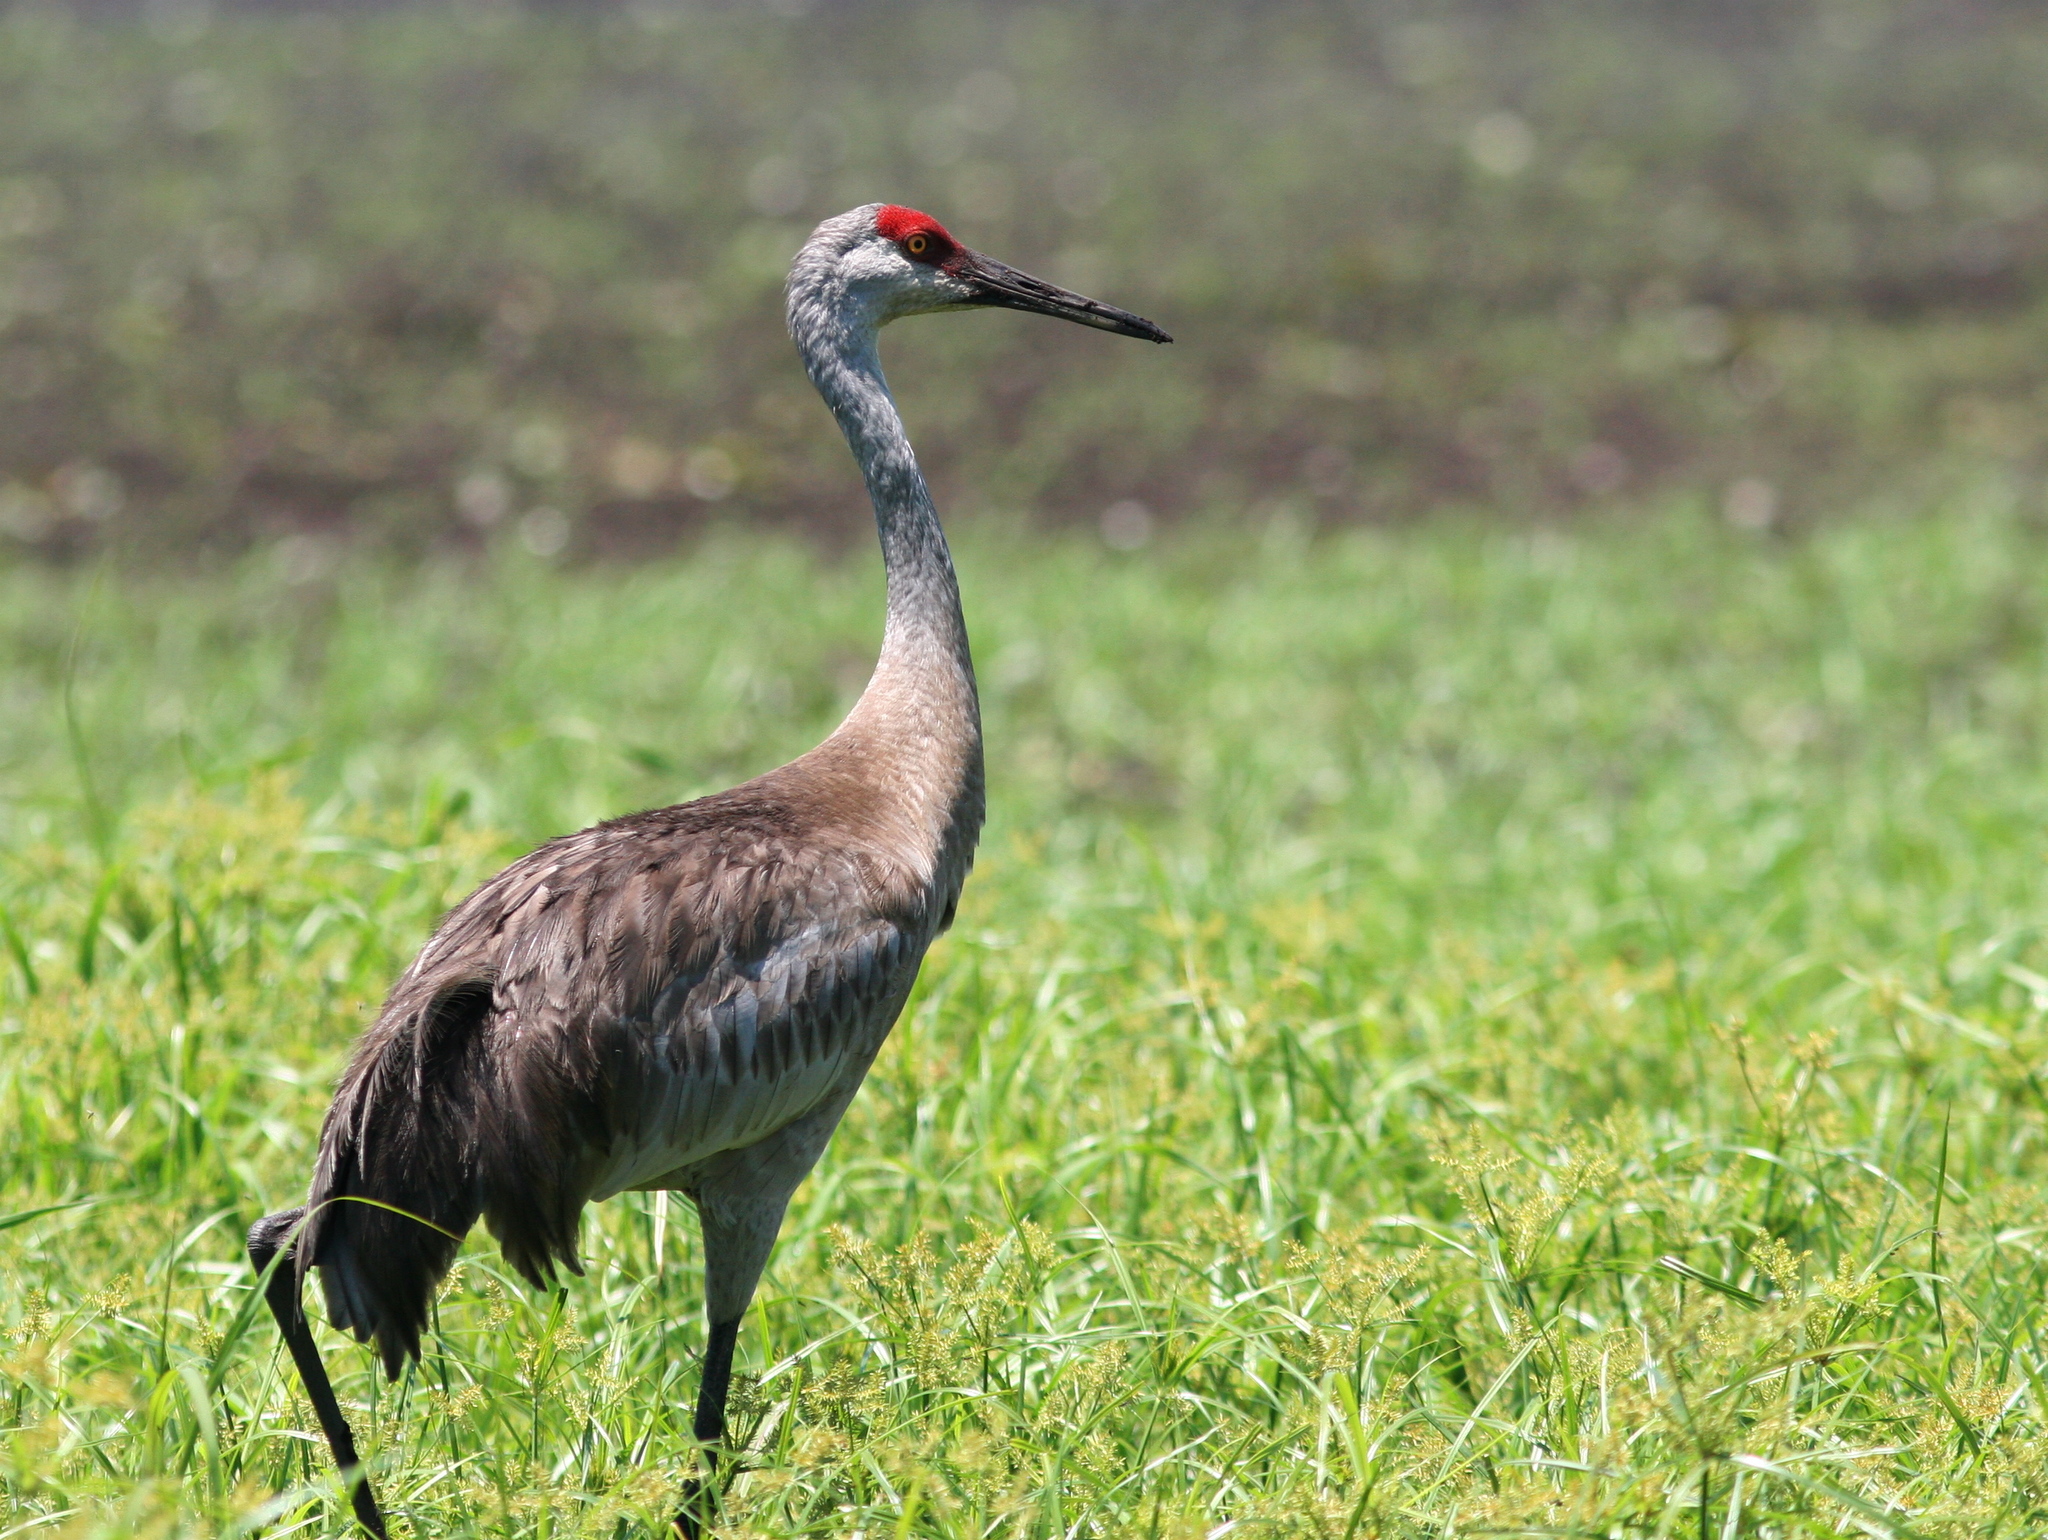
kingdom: Animalia
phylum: Chordata
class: Aves
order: Gruiformes
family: Gruidae
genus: Grus
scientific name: Grus canadensis
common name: Sandhill crane
